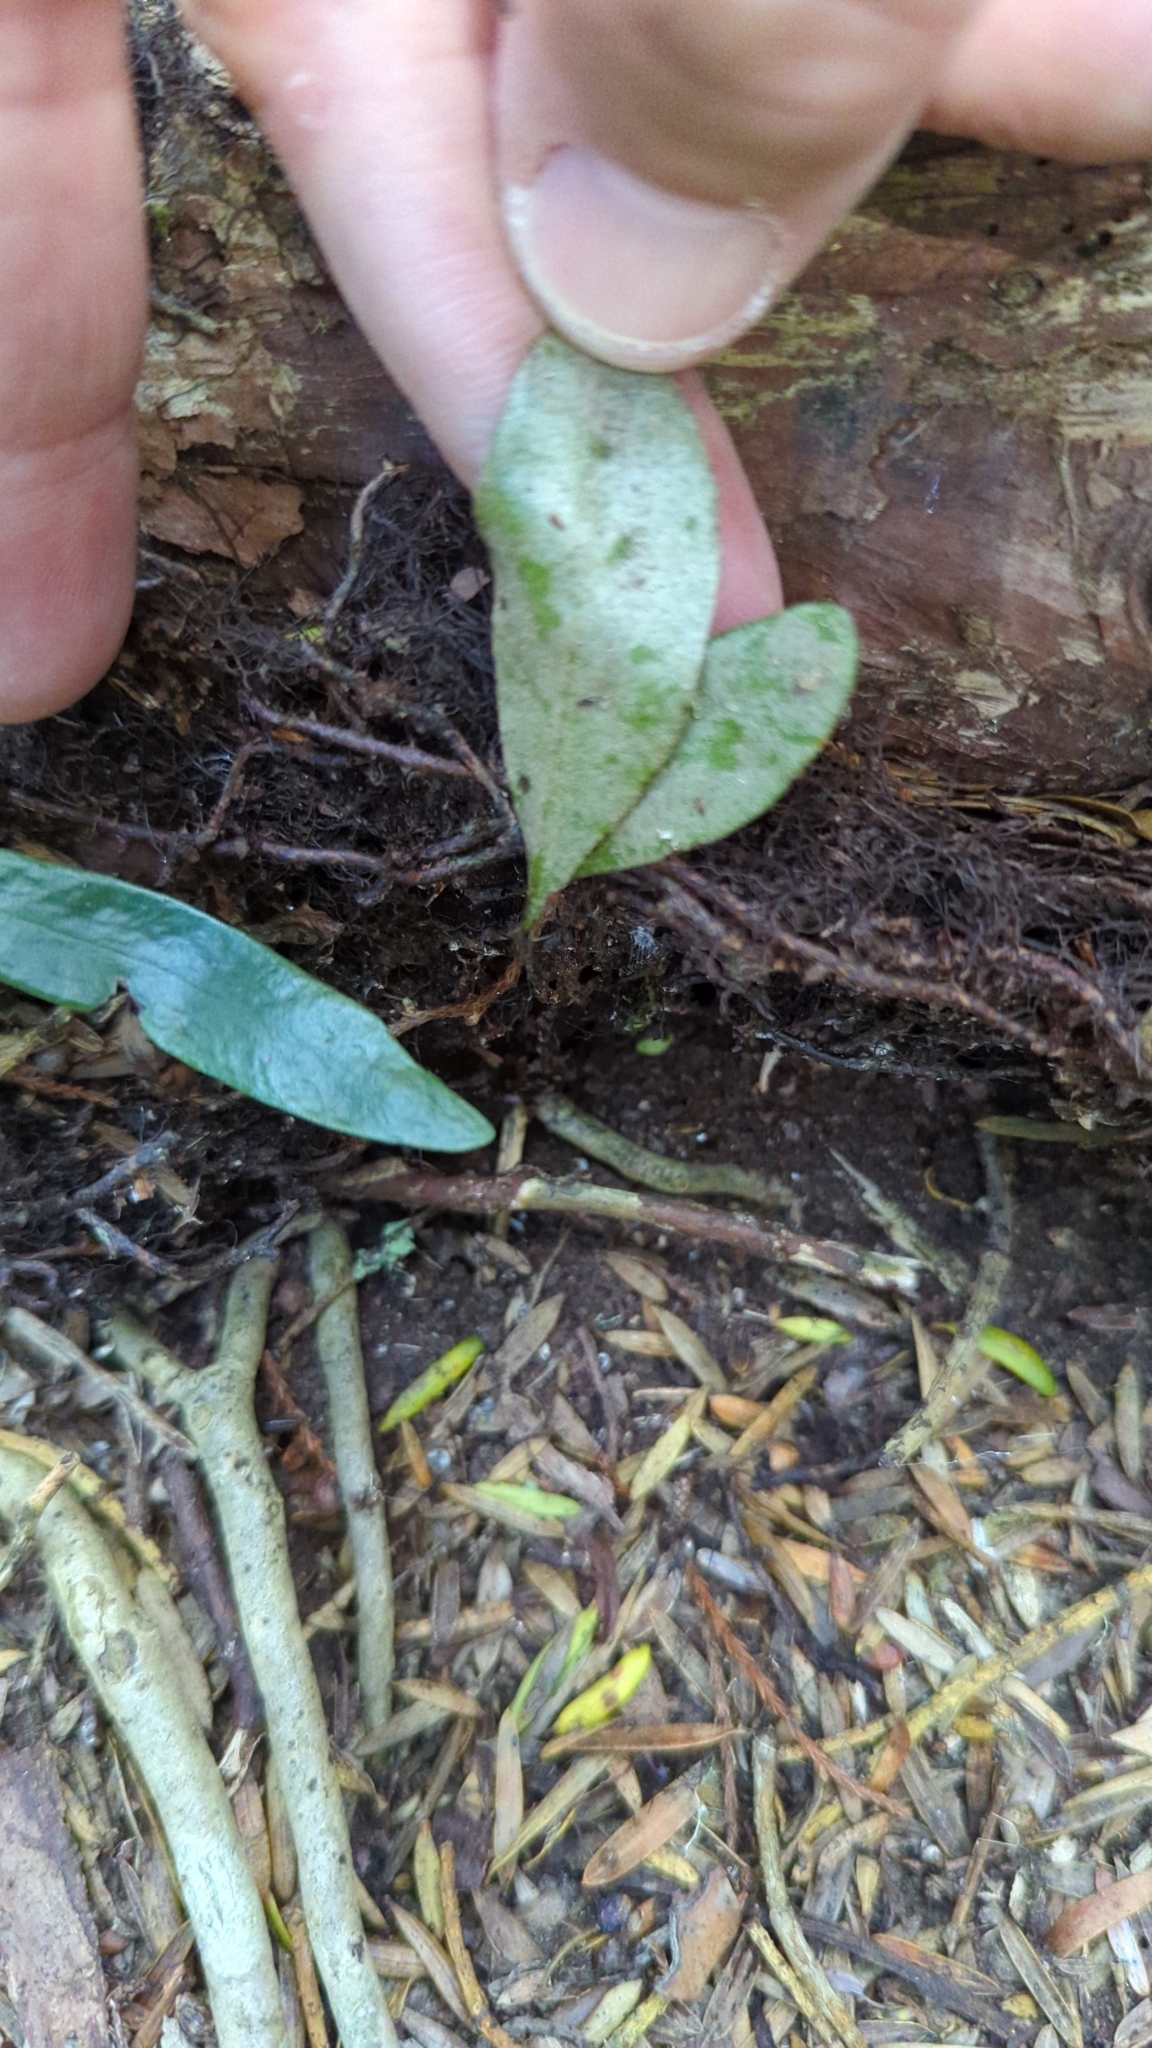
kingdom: Plantae
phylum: Tracheophyta
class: Polypodiopsida
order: Polypodiales
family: Polypodiaceae
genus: Pyrrosia
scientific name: Pyrrosia eleagnifolia
